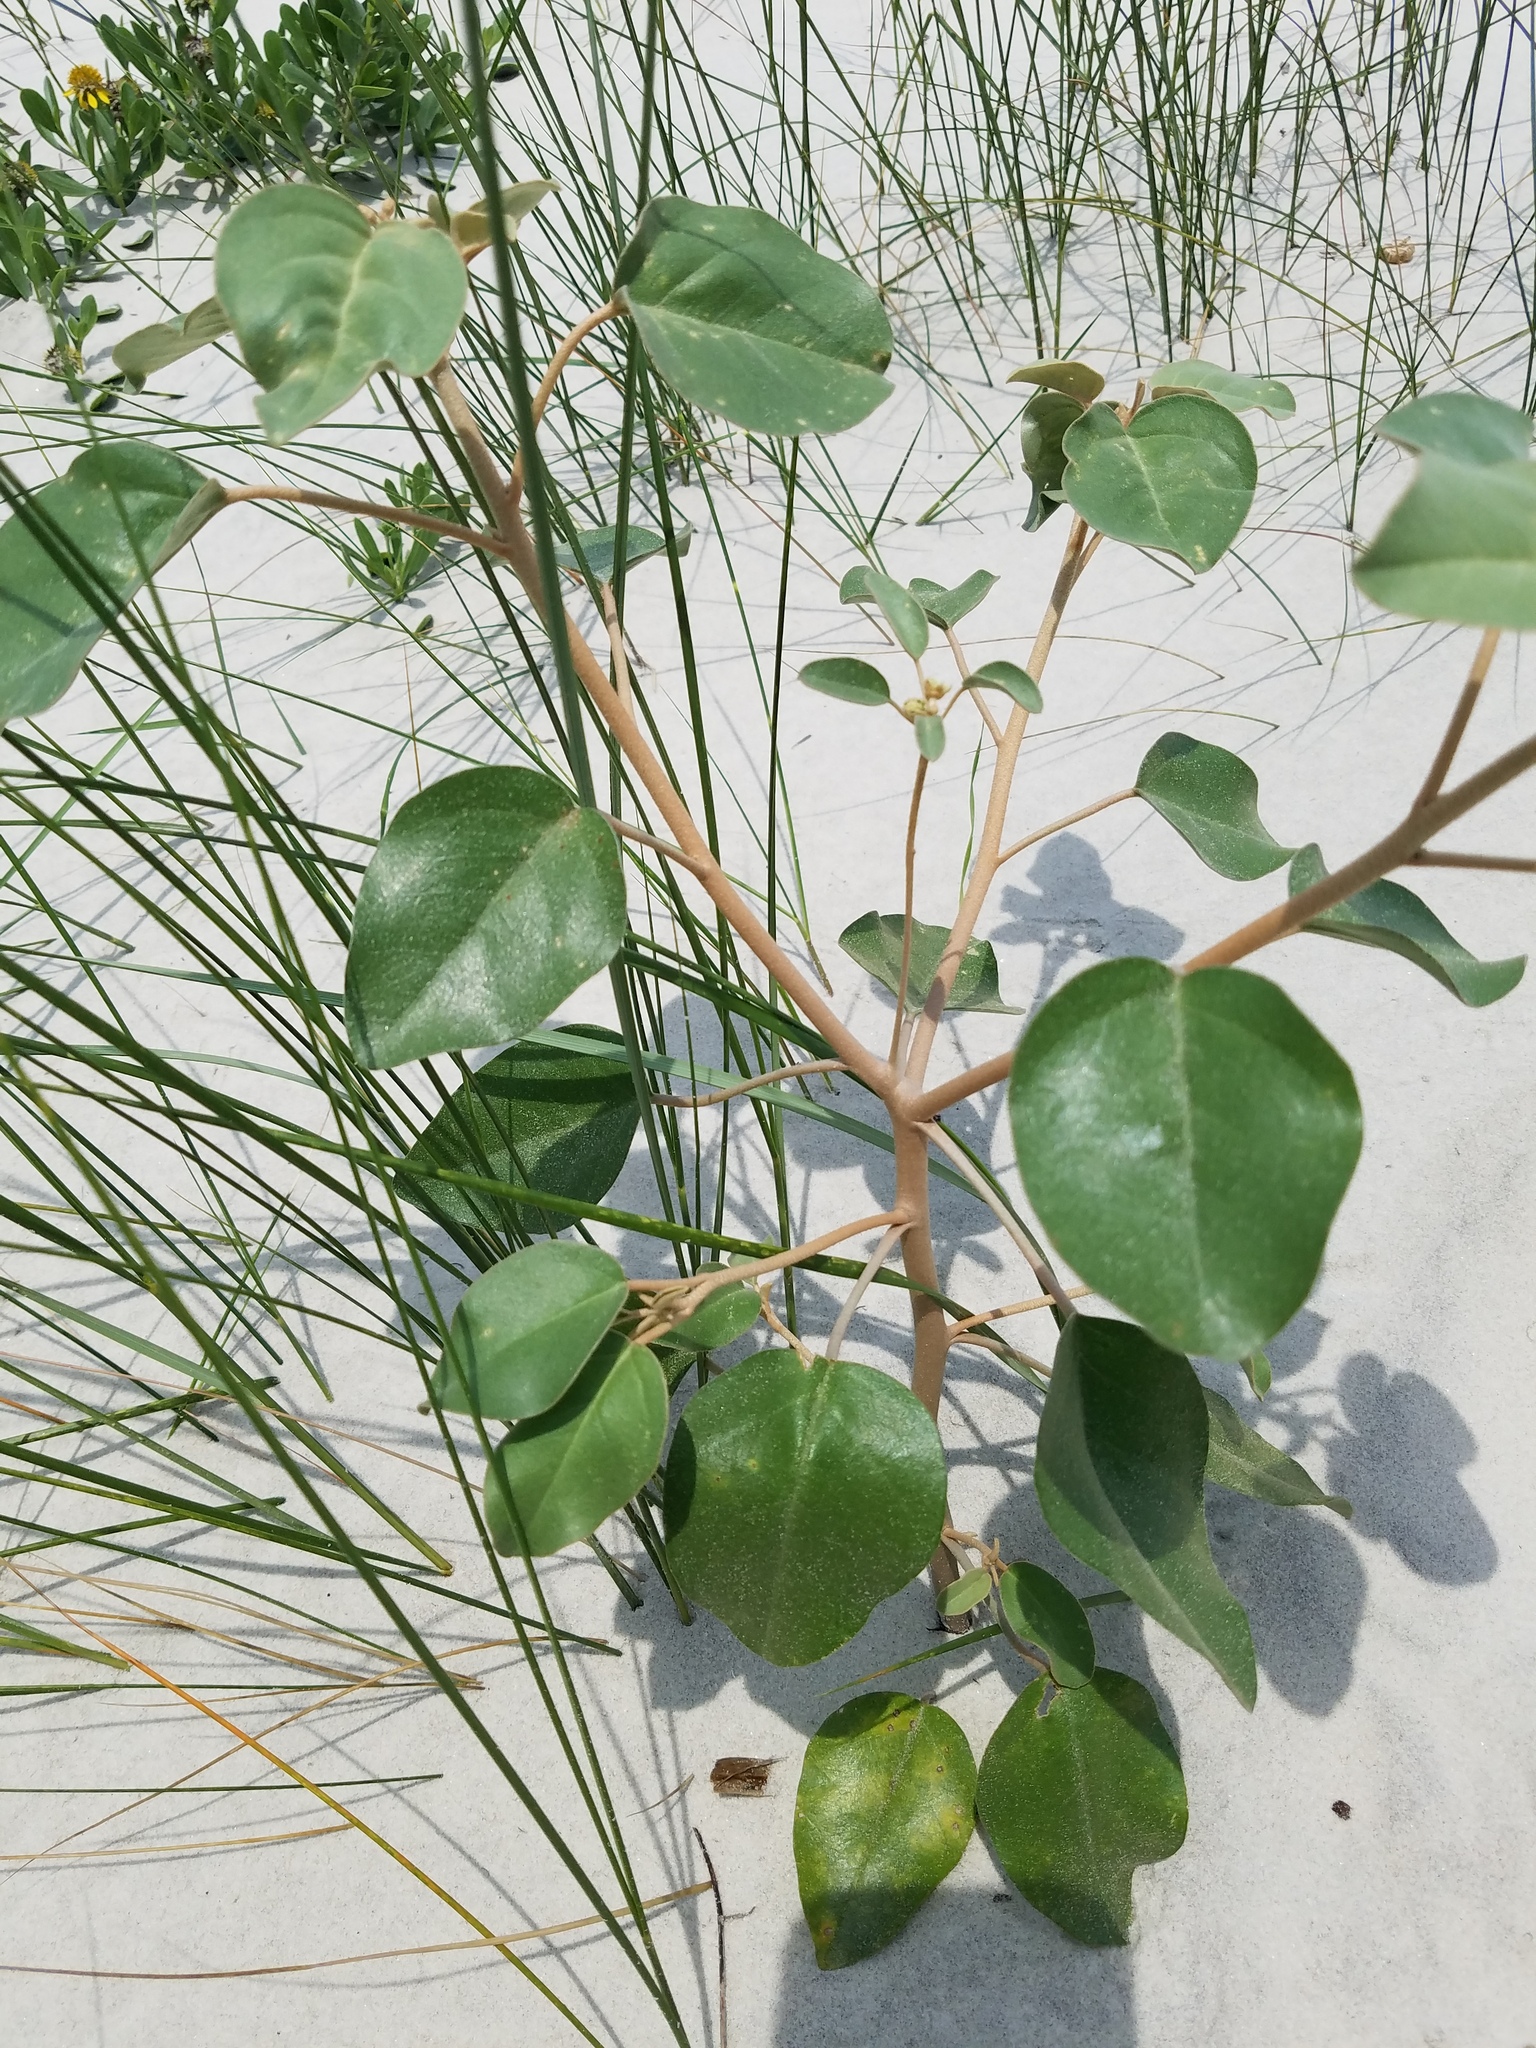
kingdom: Plantae
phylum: Tracheophyta
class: Magnoliopsida
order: Malpighiales
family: Euphorbiaceae
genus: Croton
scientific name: Croton punctatus
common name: Beach-tea
